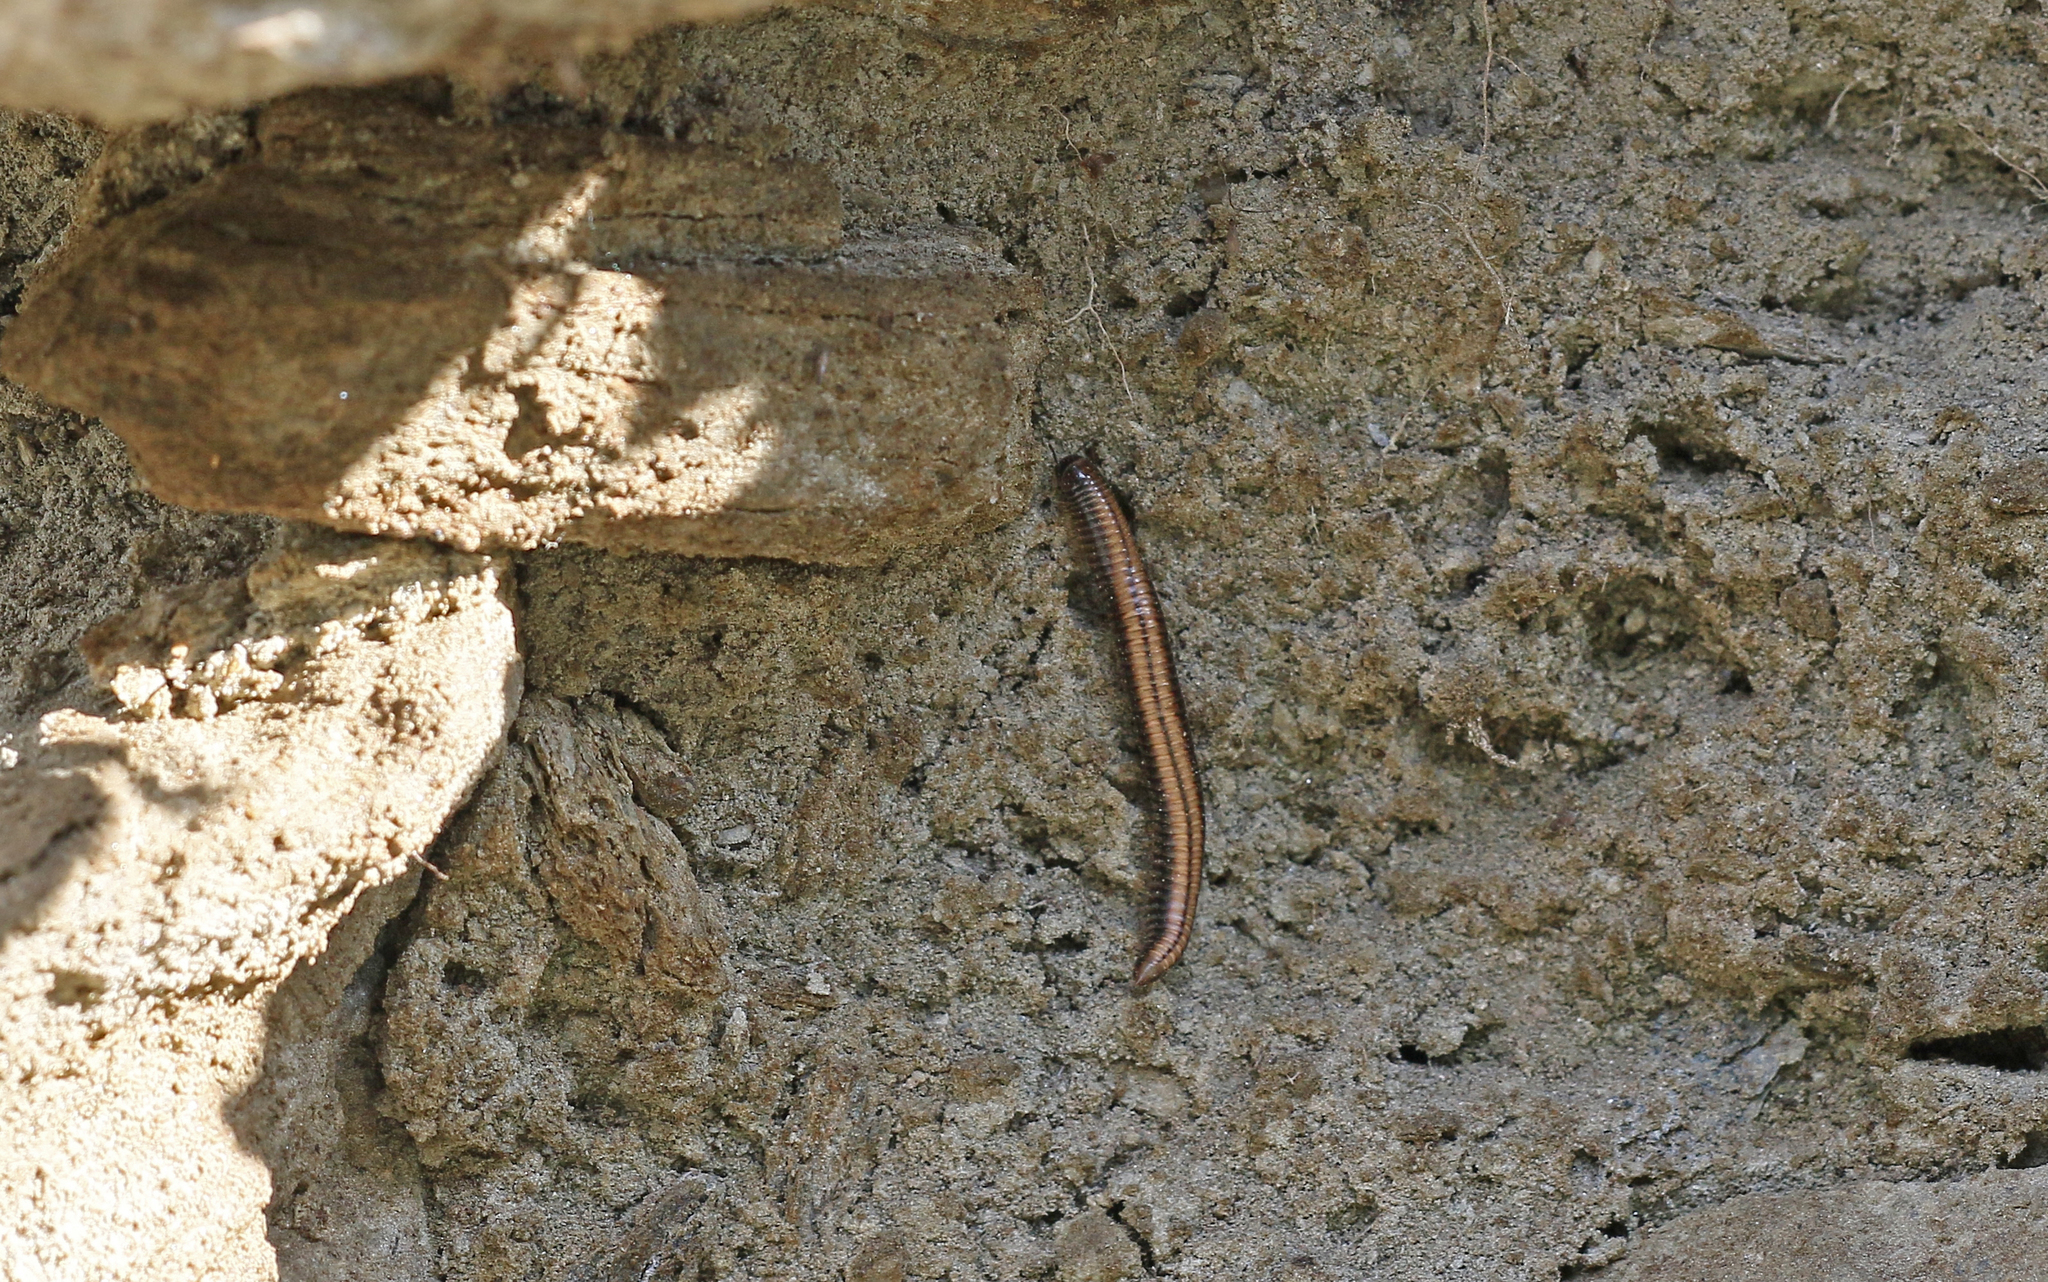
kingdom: Animalia
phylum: Arthropoda
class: Diplopoda
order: Julida
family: Julidae
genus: Ommatoiulus
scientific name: Ommatoiulus sabulosus
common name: Striped millipede
